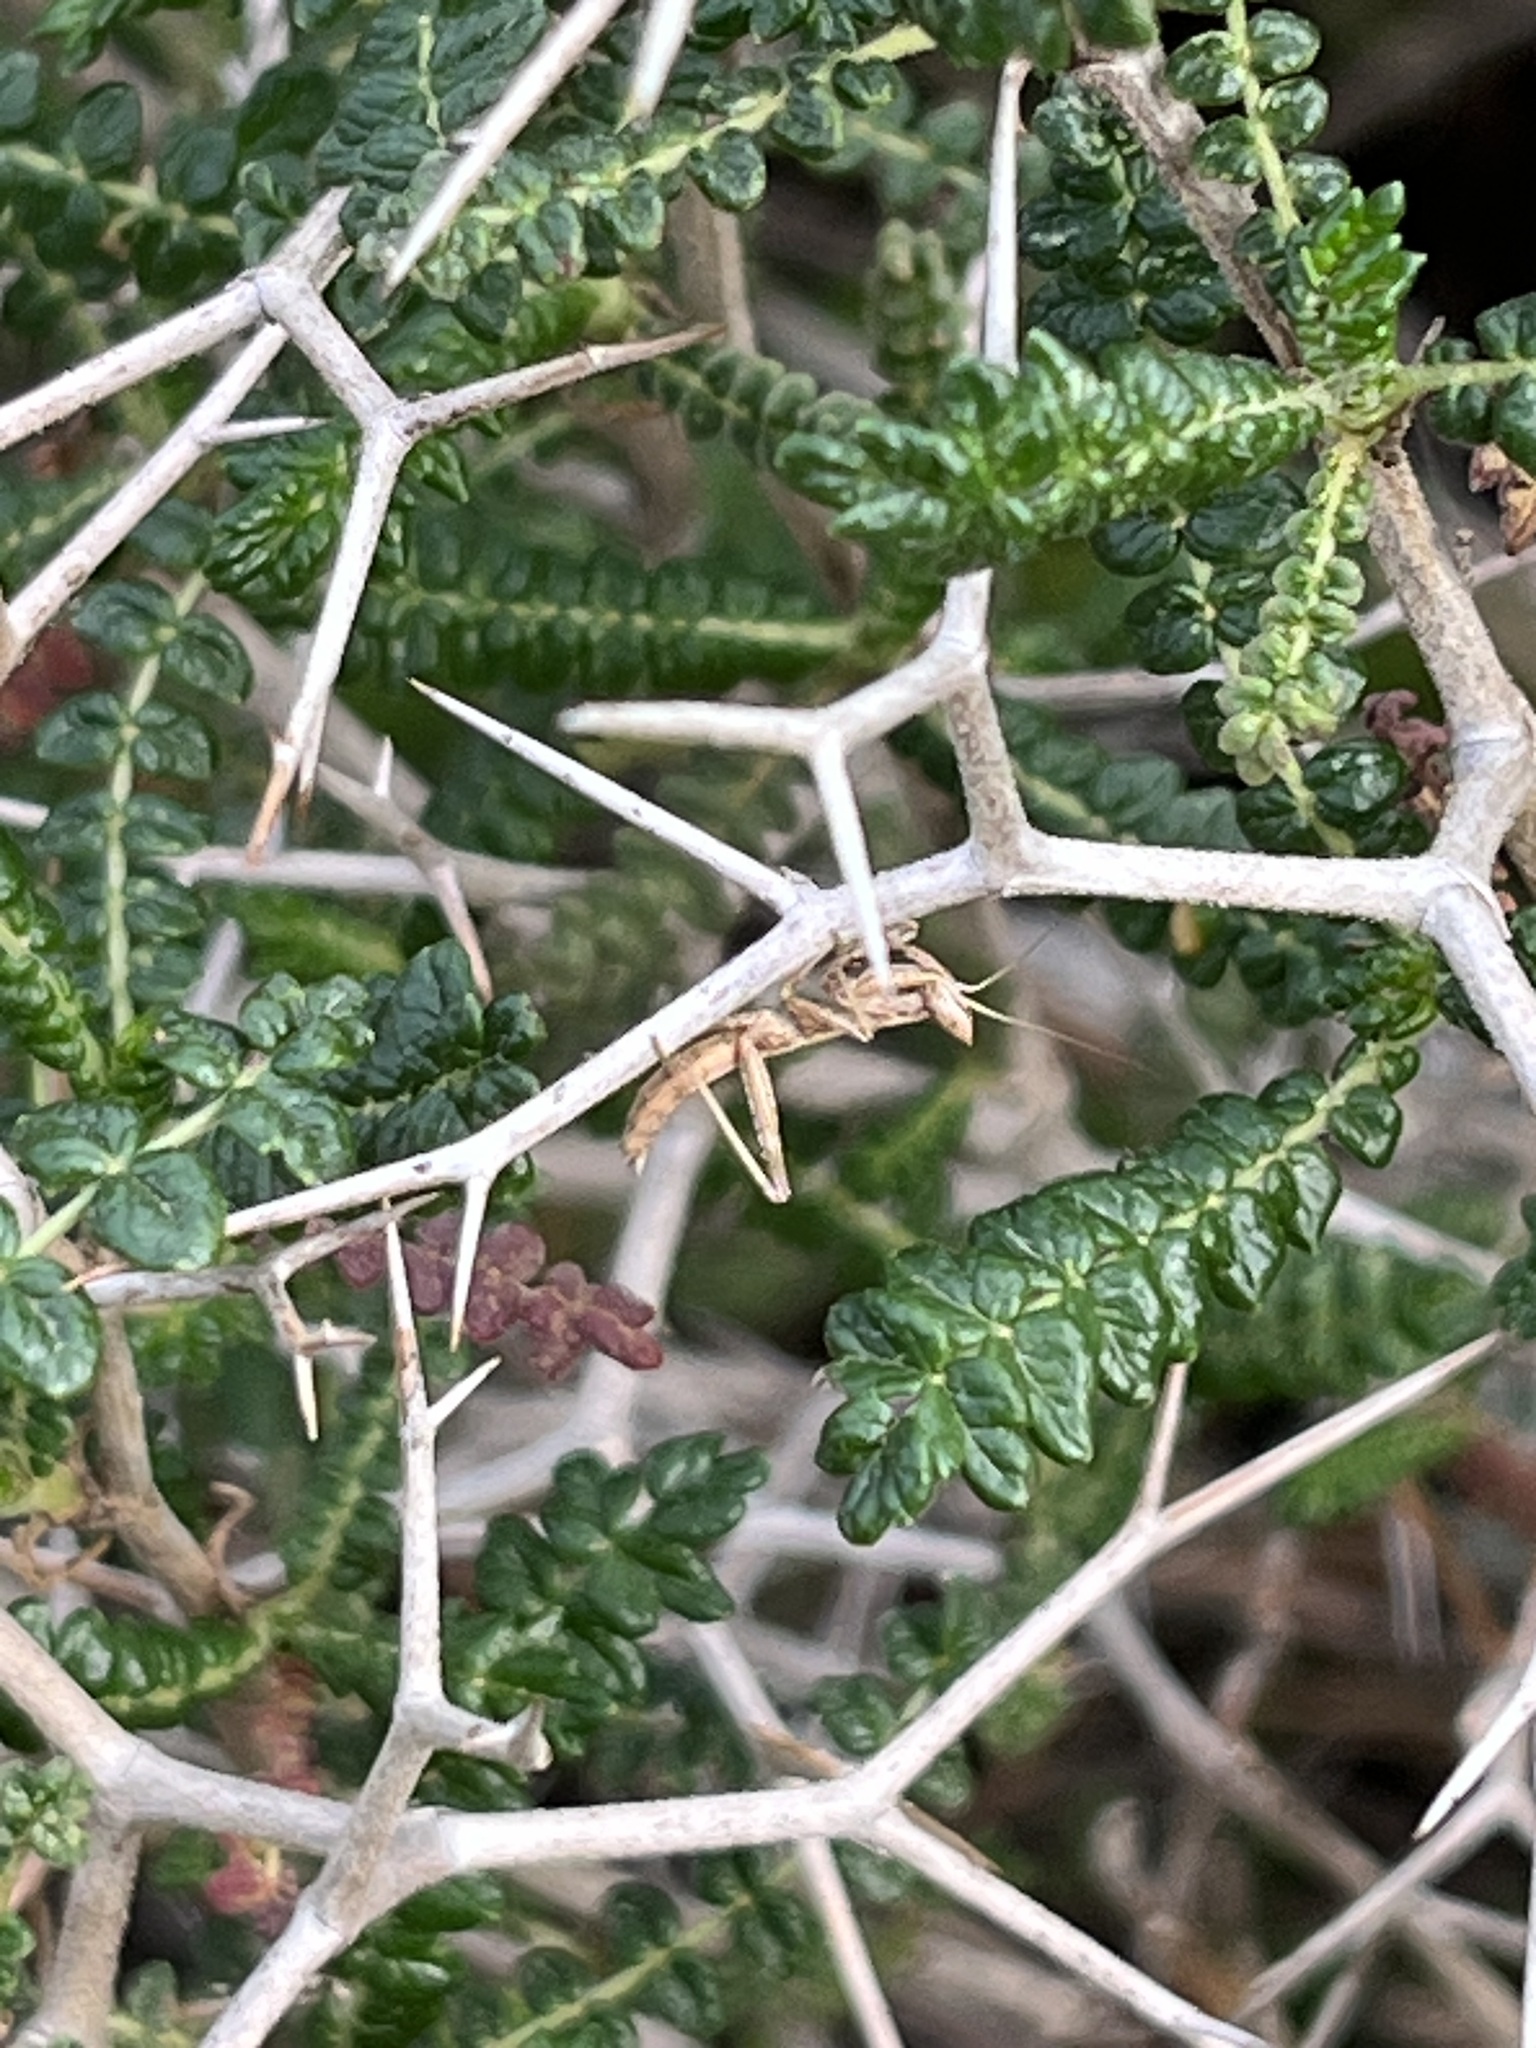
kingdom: Animalia
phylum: Arthropoda
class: Insecta
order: Mantodea
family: Amelidae
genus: Ameles
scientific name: Ameles heldreichi
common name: Heldreich's dwarf mantis
